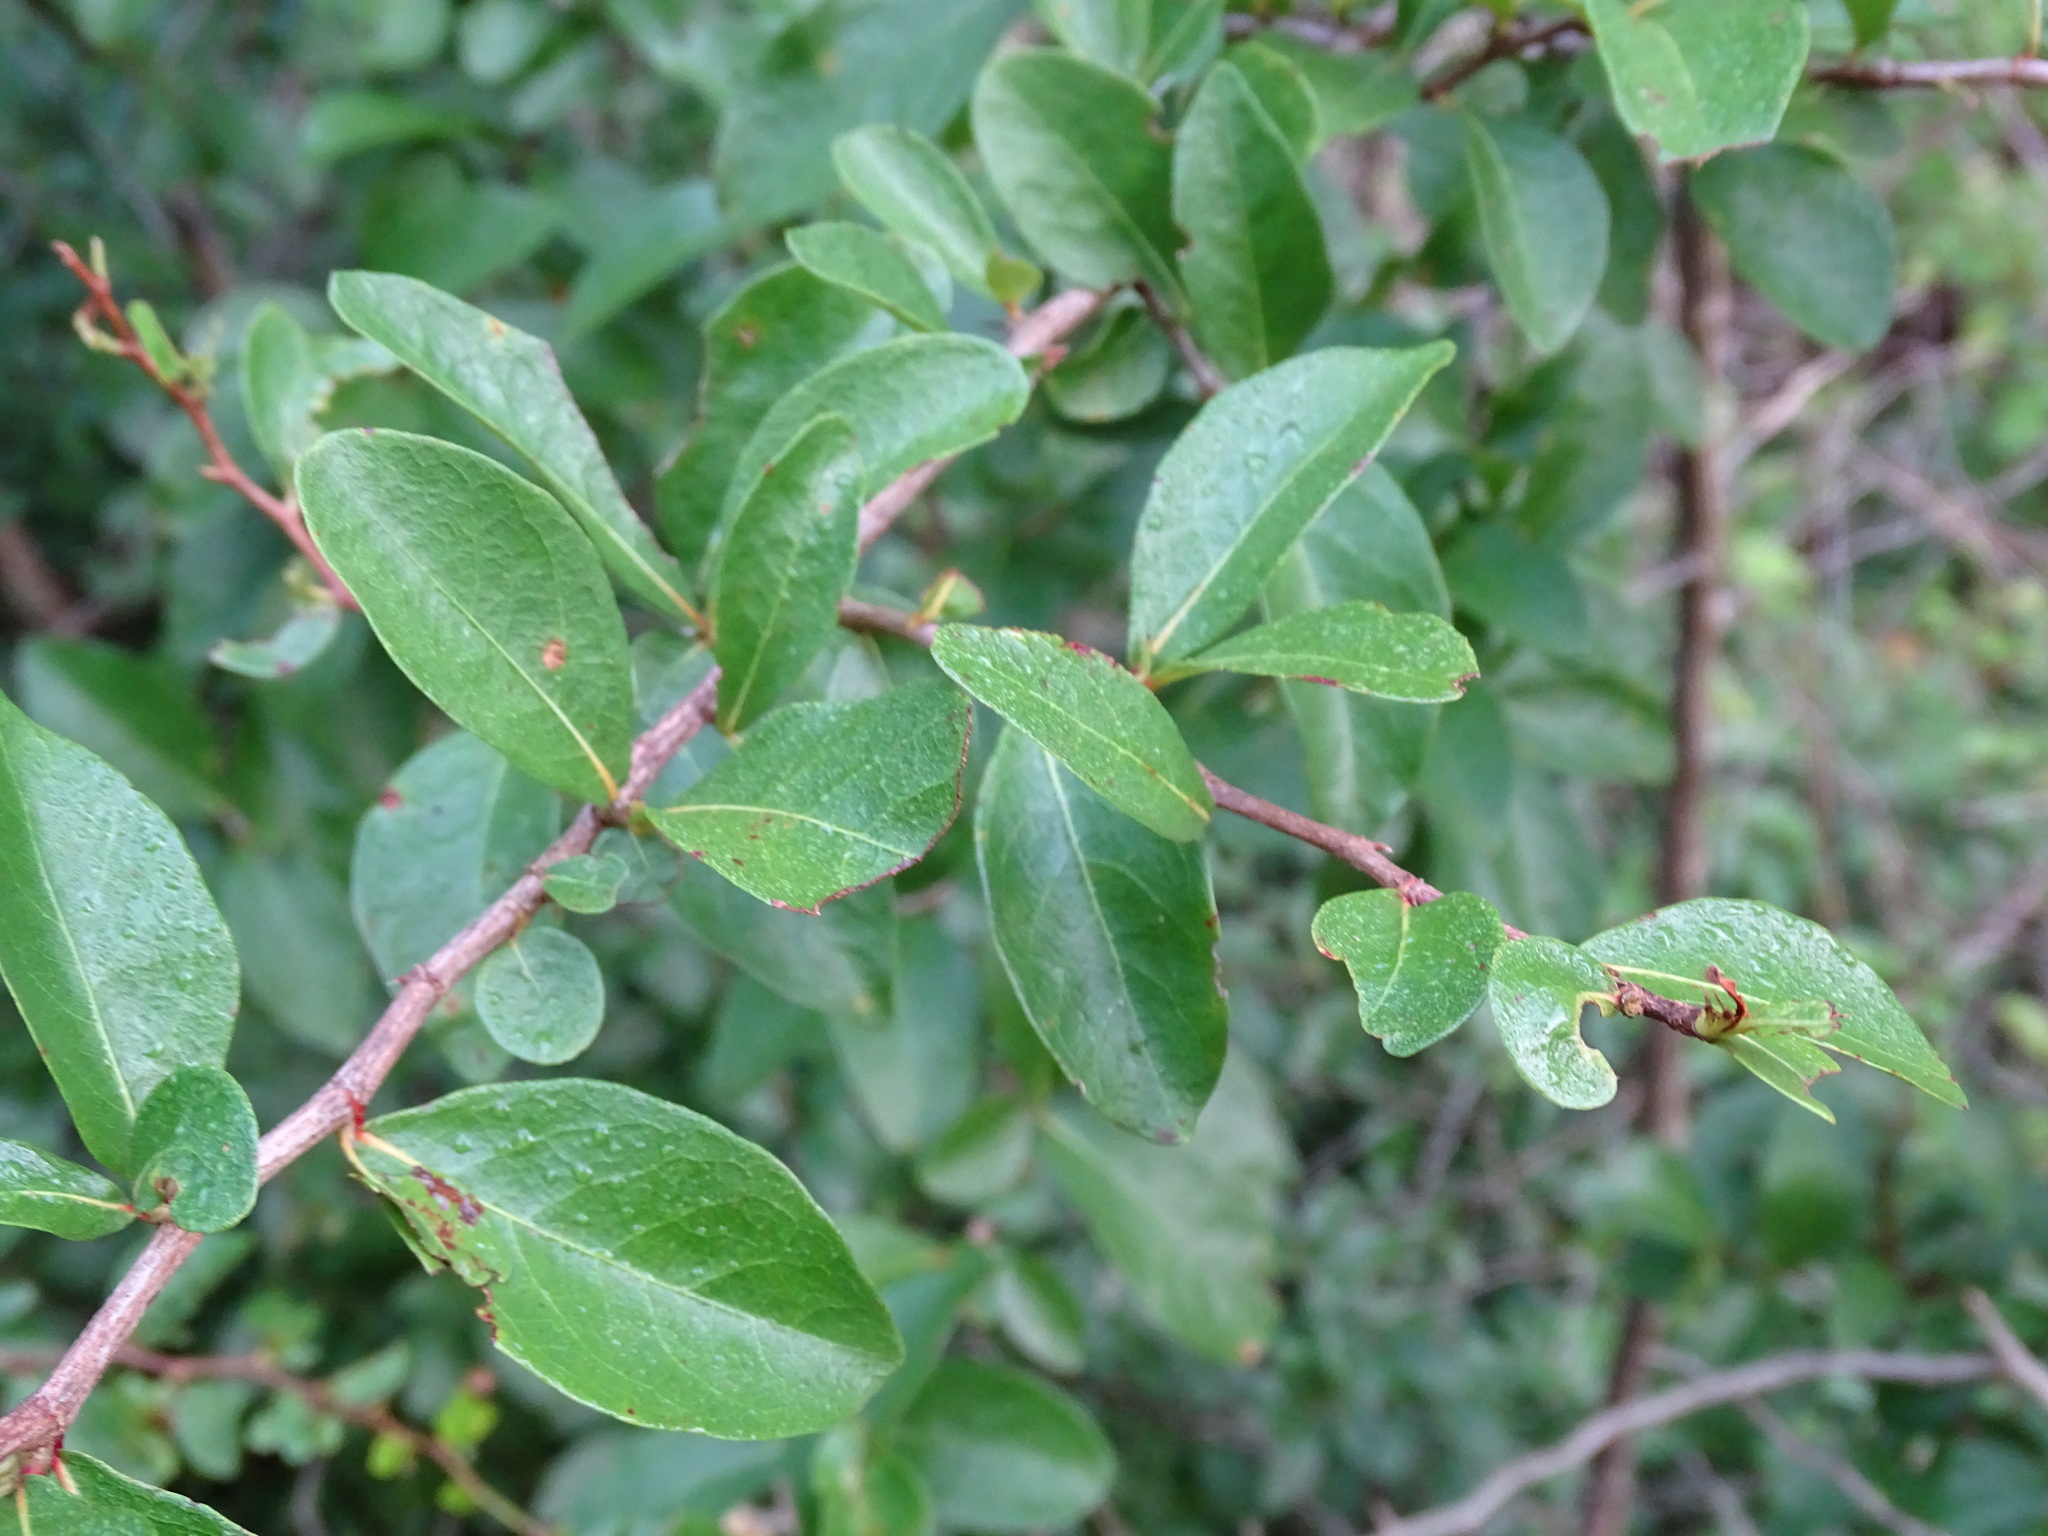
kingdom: Plantae
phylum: Tracheophyta
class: Magnoliopsida
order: Caryophyllales
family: Polygonaceae
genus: Gymnopodium
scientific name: Gymnopodium floribundum
